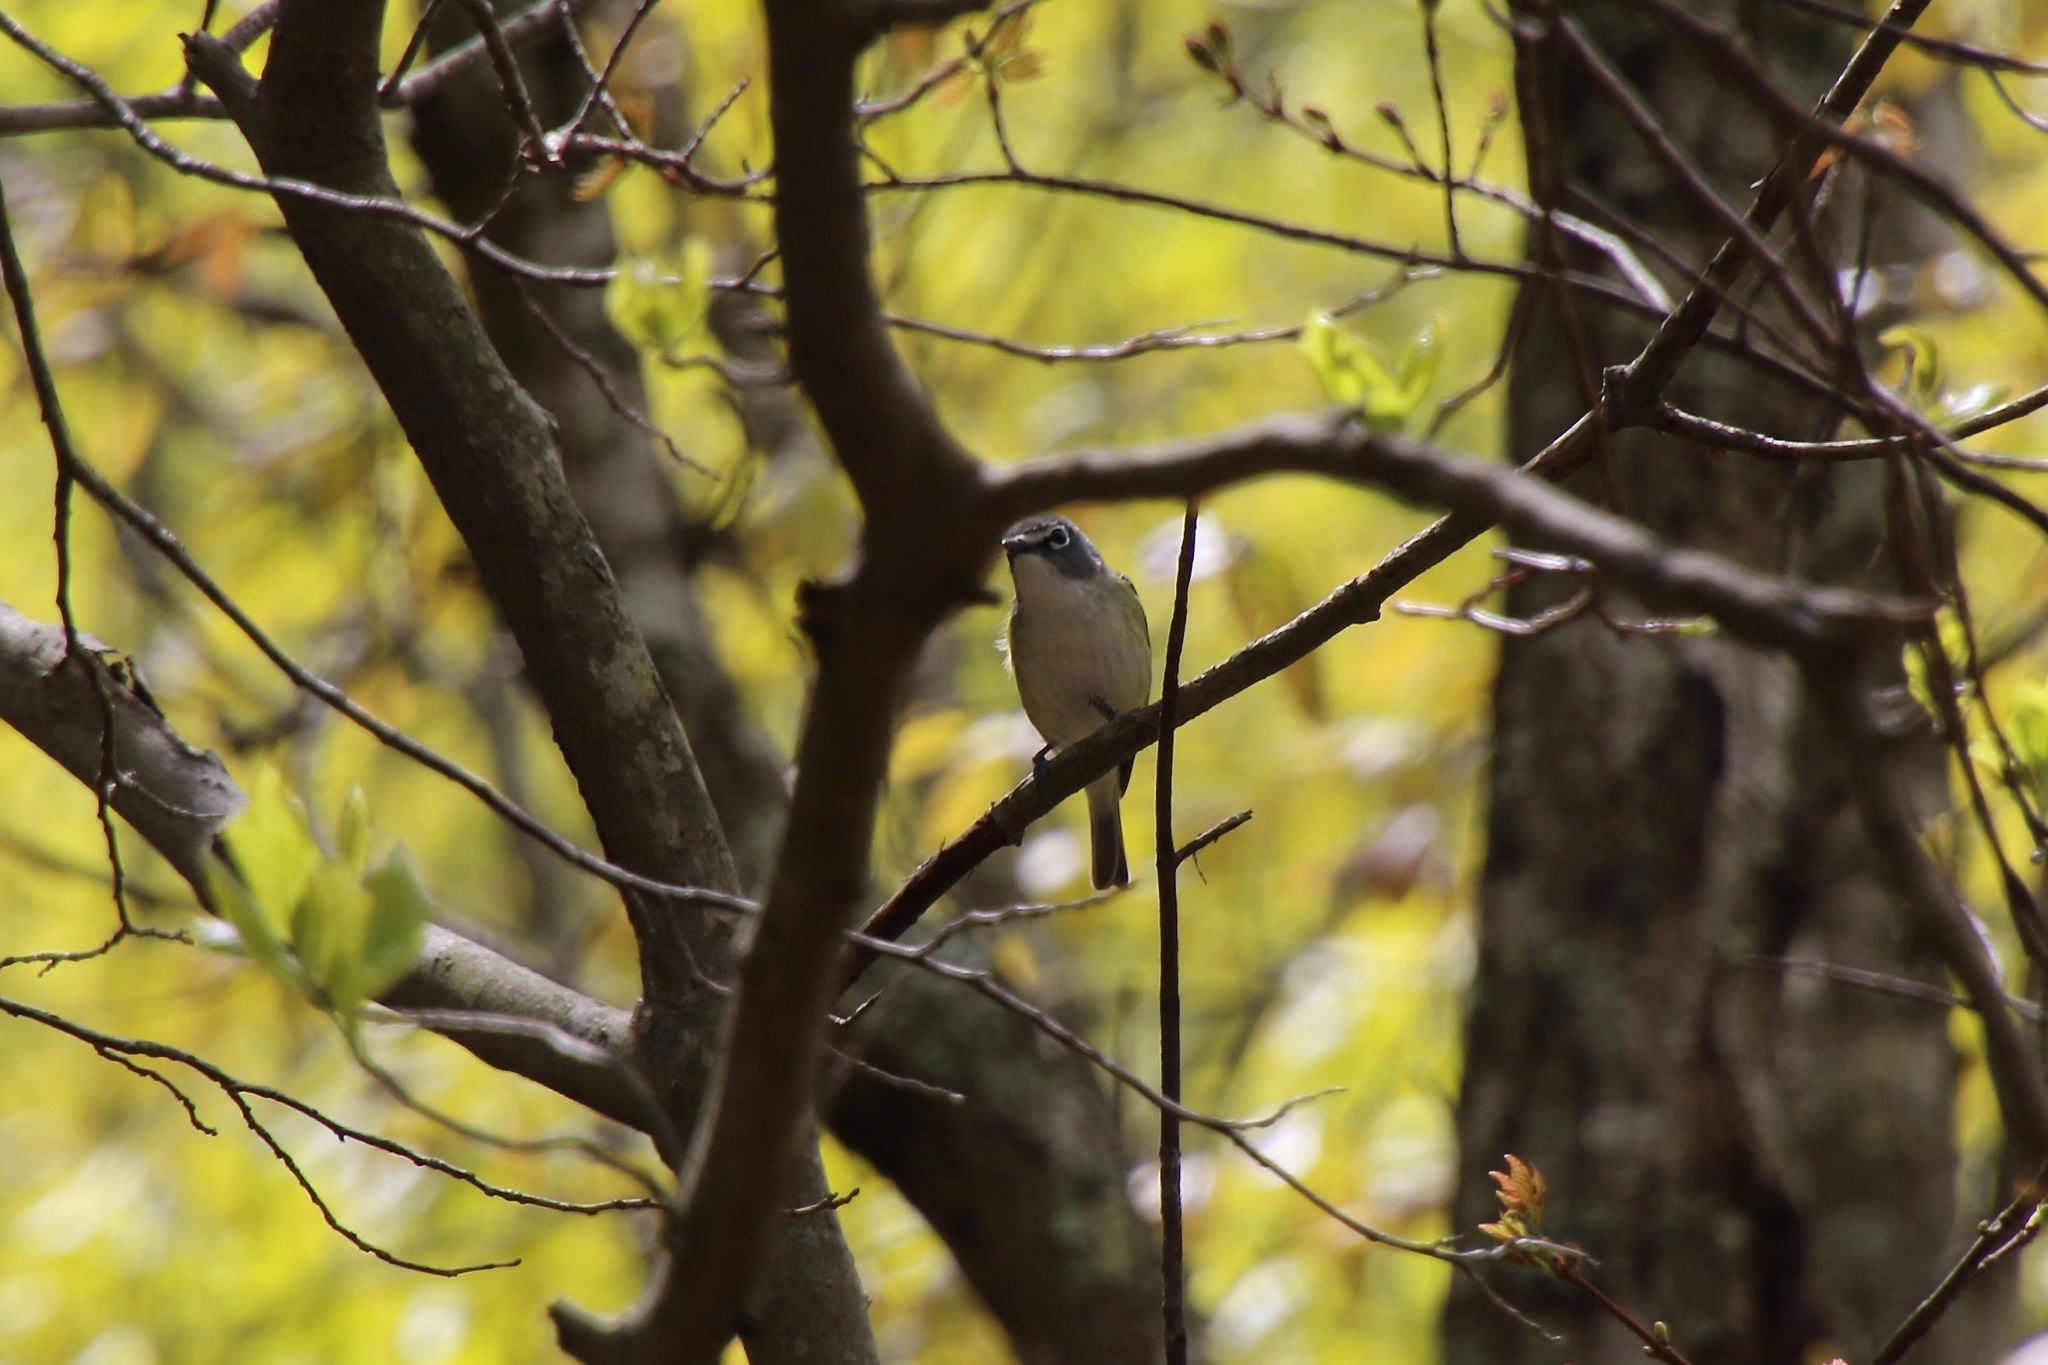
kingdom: Animalia
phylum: Chordata
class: Aves
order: Passeriformes
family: Vireonidae
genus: Vireo
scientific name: Vireo solitarius
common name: Blue-headed vireo
